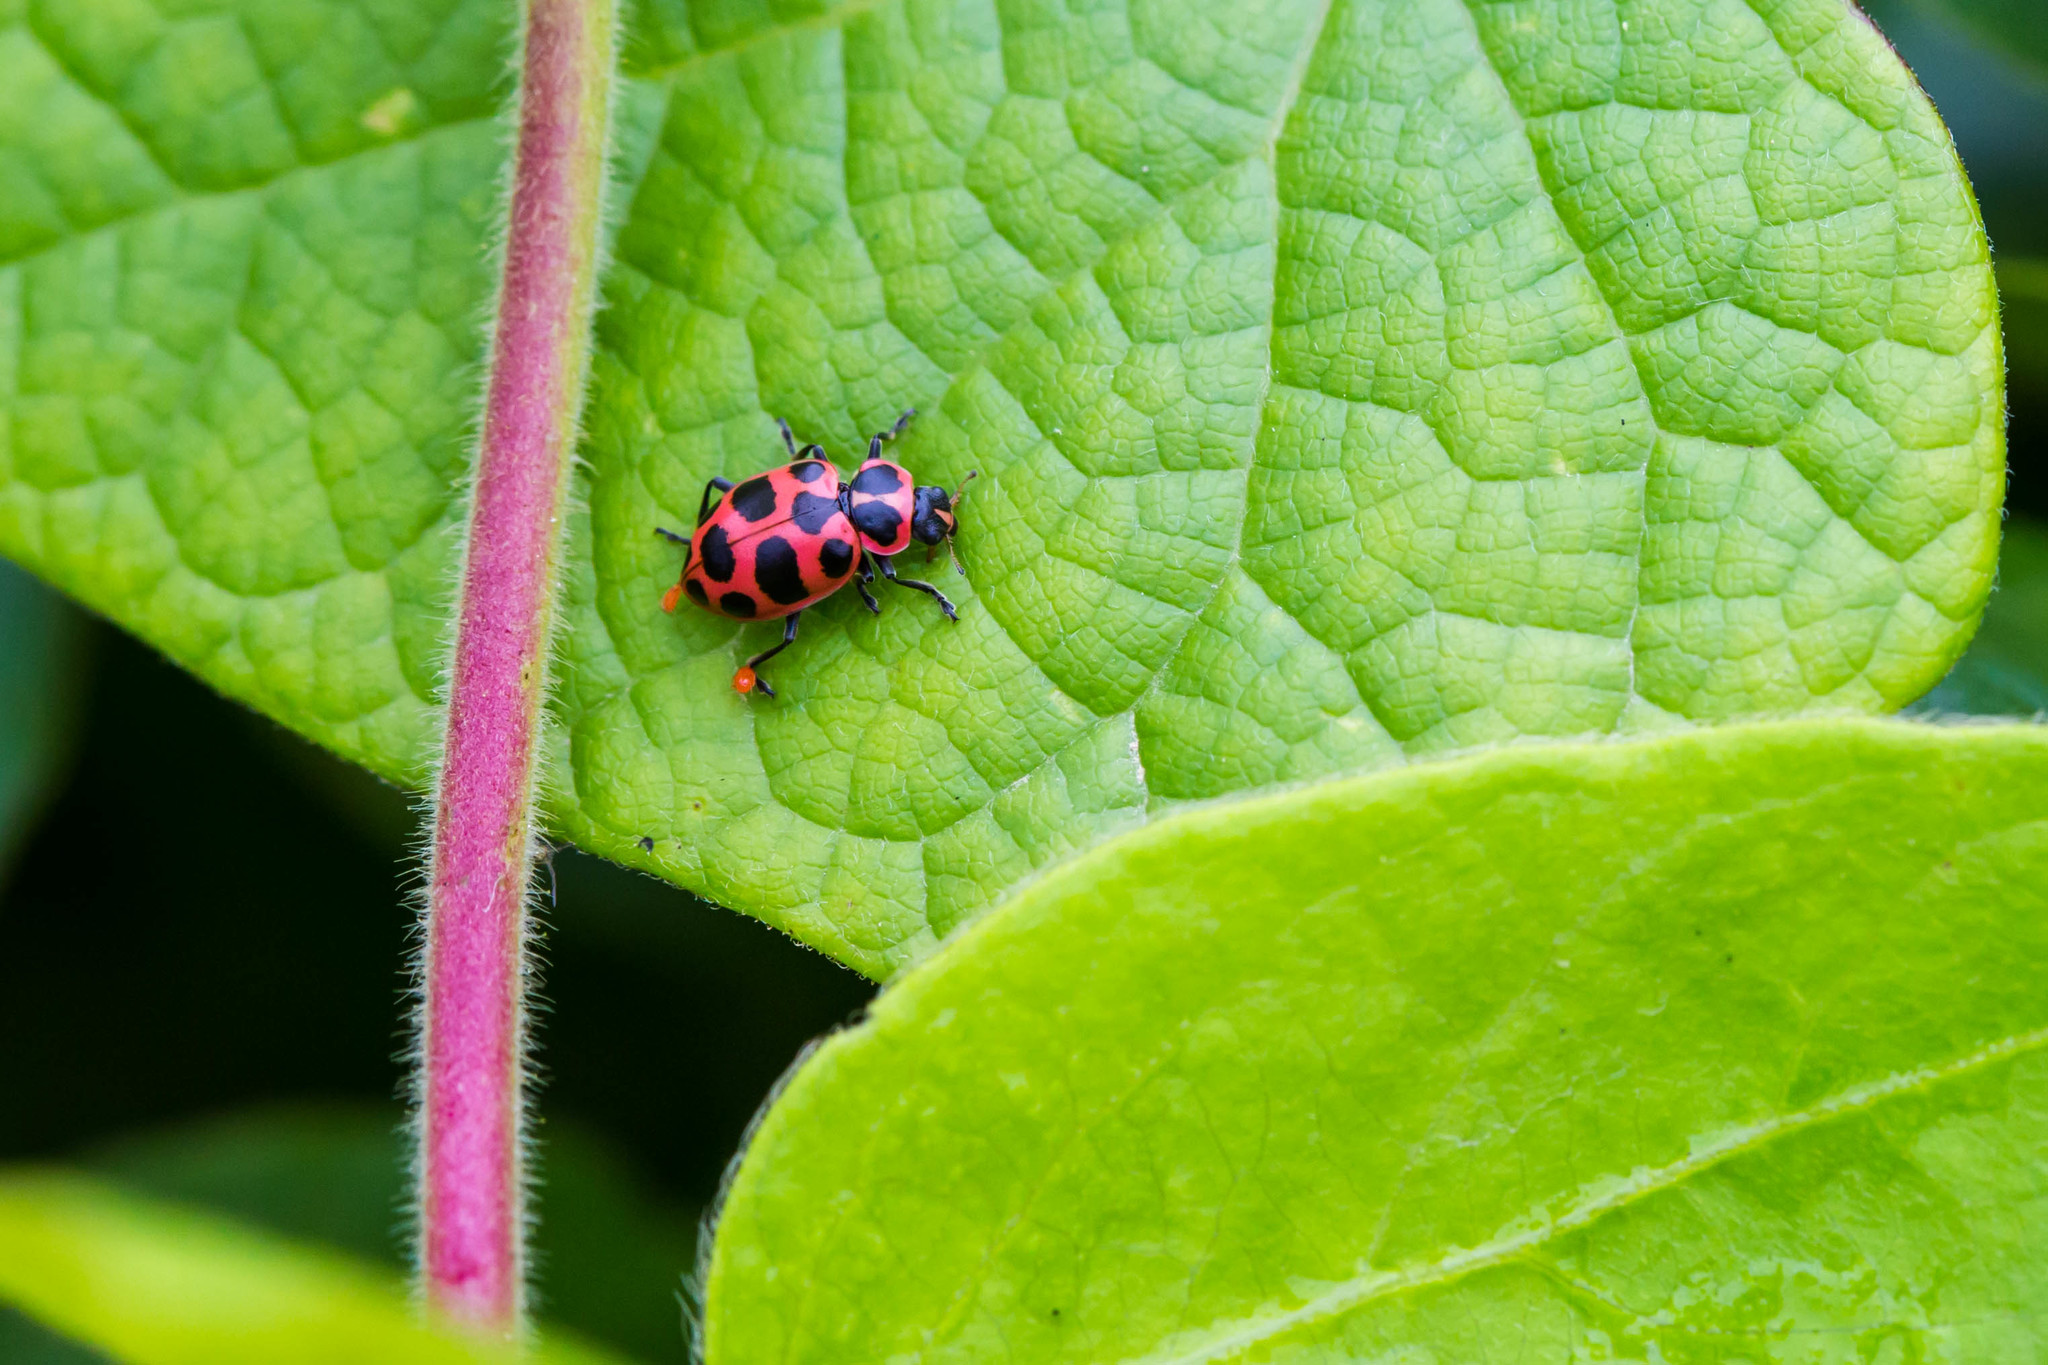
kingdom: Animalia
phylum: Arthropoda
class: Insecta
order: Coleoptera
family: Coccinellidae
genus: Coleomegilla
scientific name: Coleomegilla maculata
